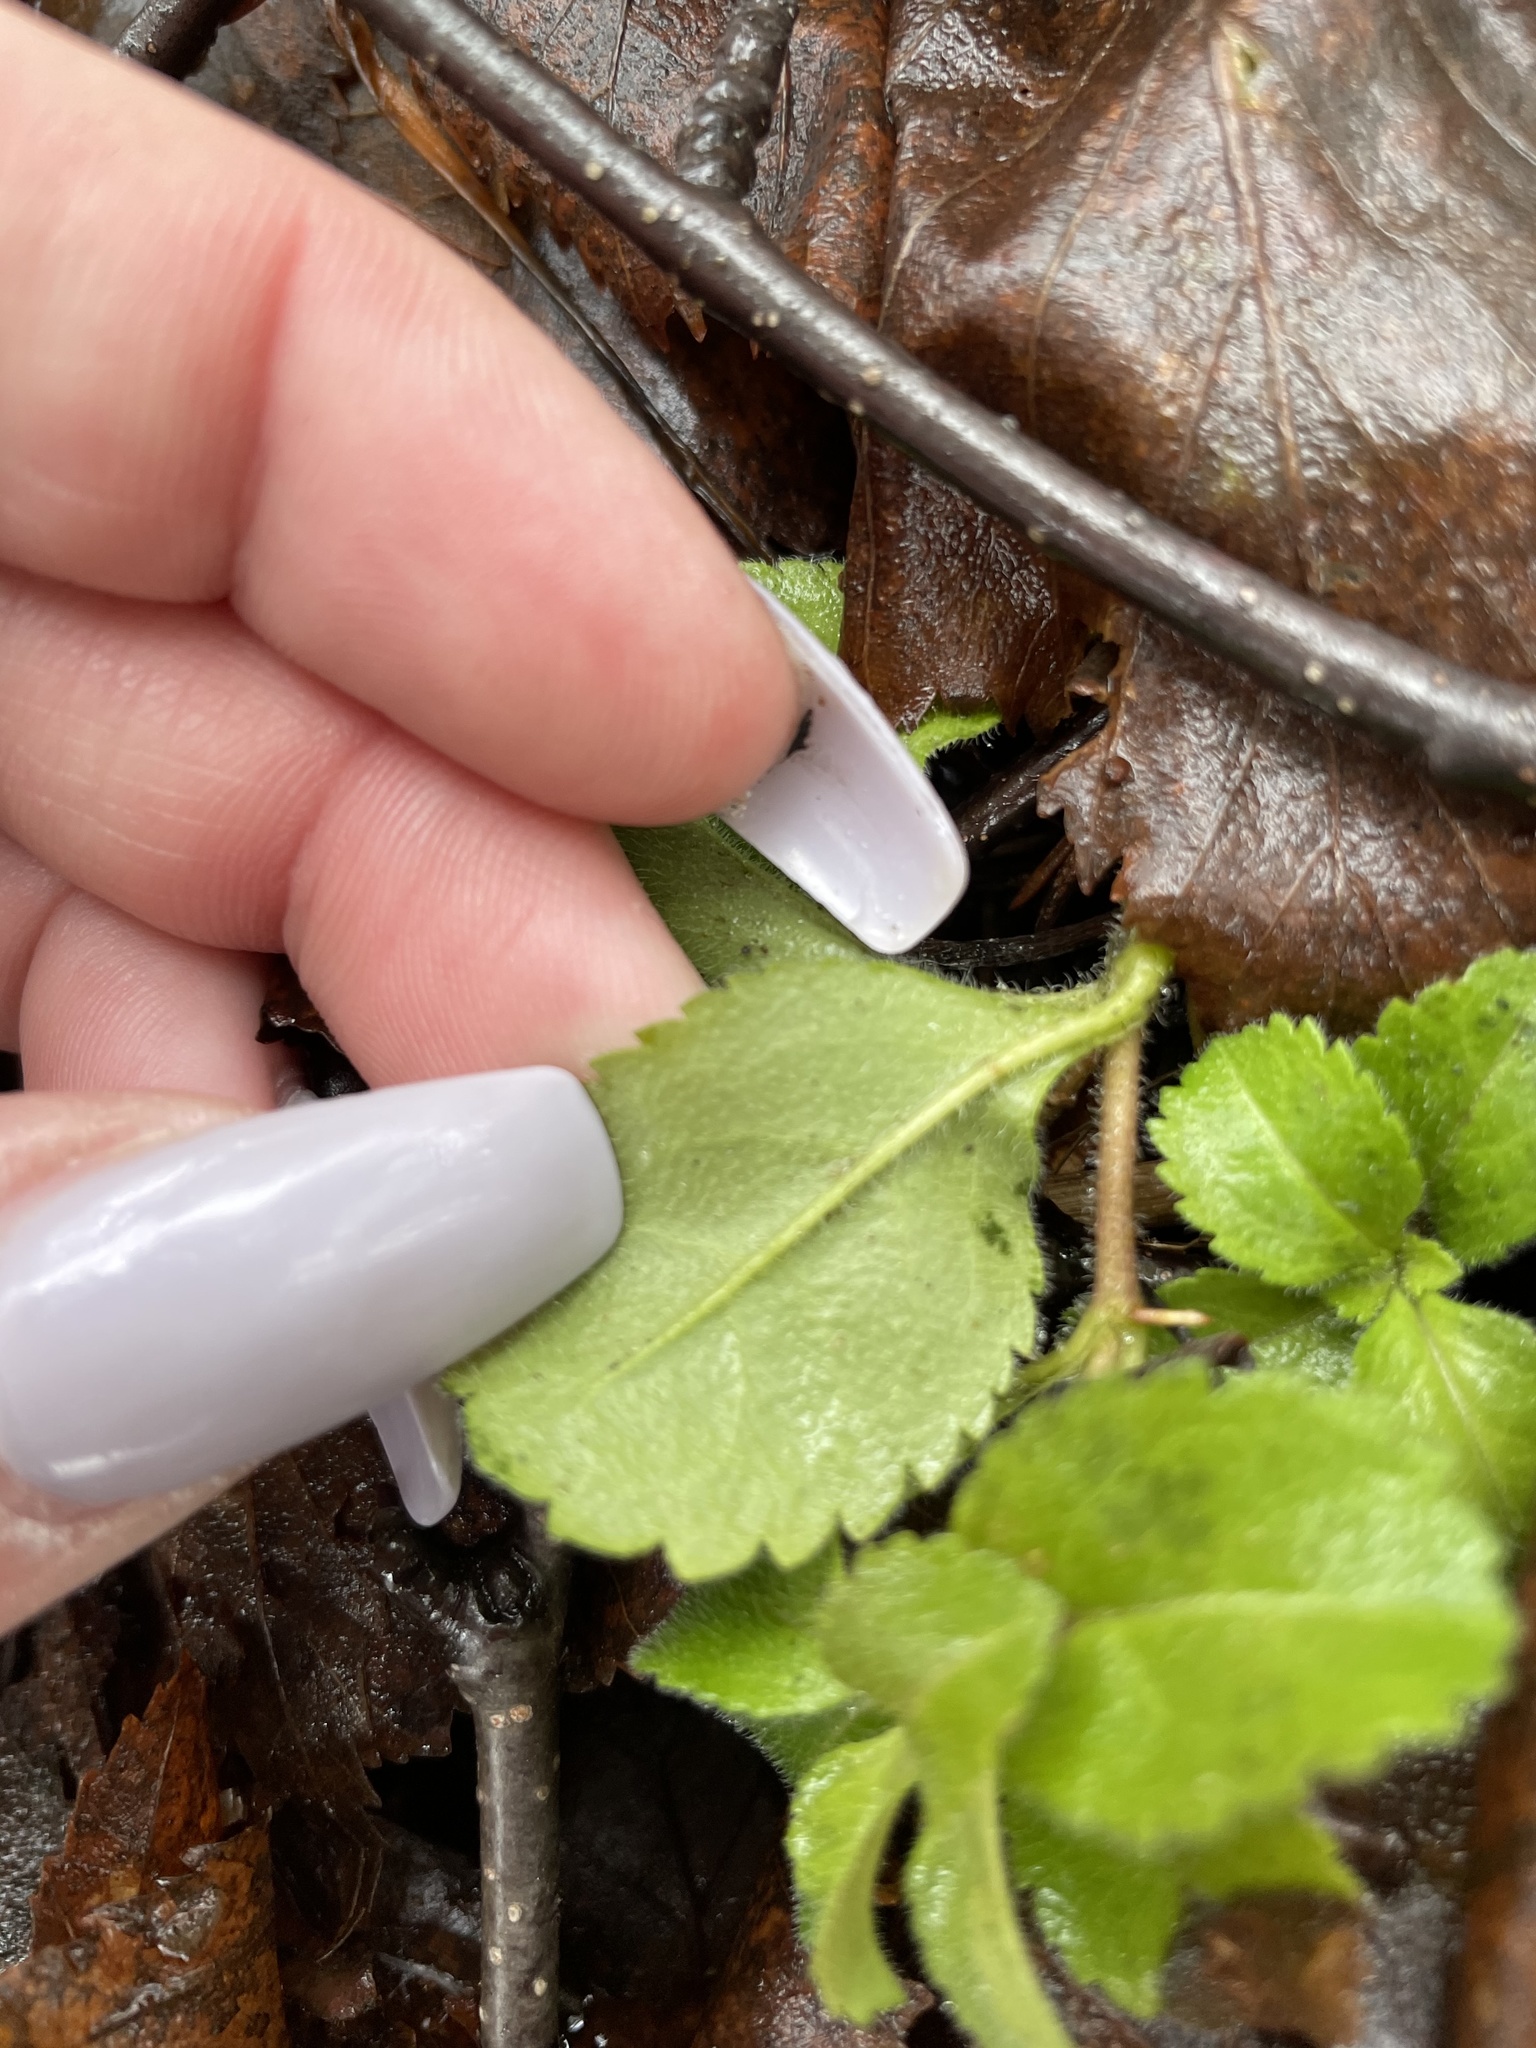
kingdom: Plantae
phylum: Tracheophyta
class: Magnoliopsida
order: Lamiales
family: Plantaginaceae
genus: Veronica
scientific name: Veronica officinalis
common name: Common speedwell
